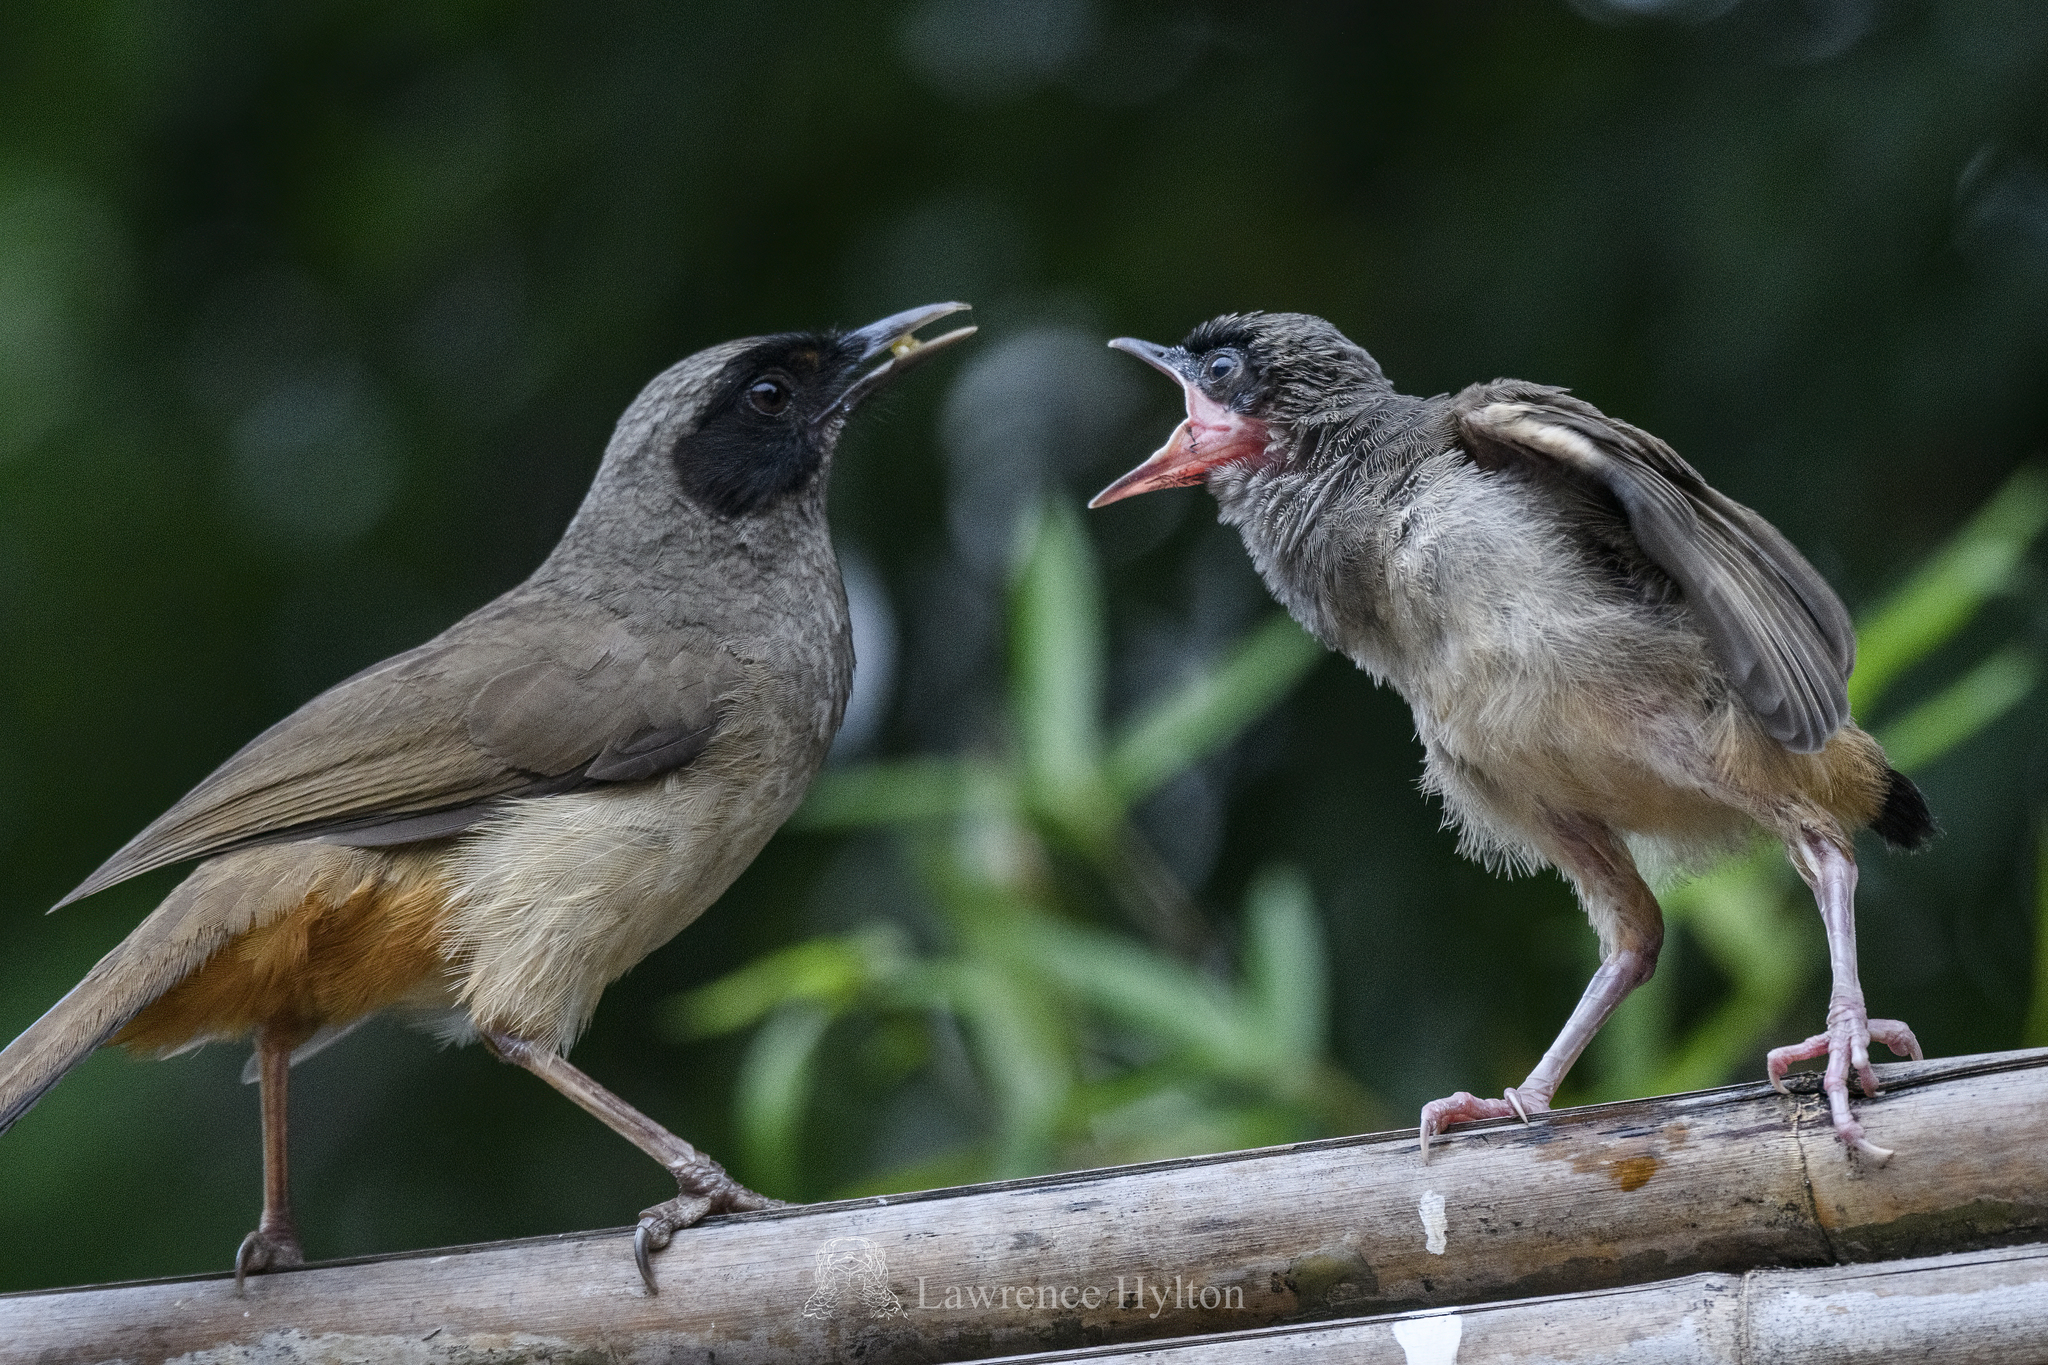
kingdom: Animalia
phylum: Chordata
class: Aves
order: Passeriformes
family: Leiothrichidae
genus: Garrulax
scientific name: Garrulax perspicillatus
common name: Masked laughingthrush
